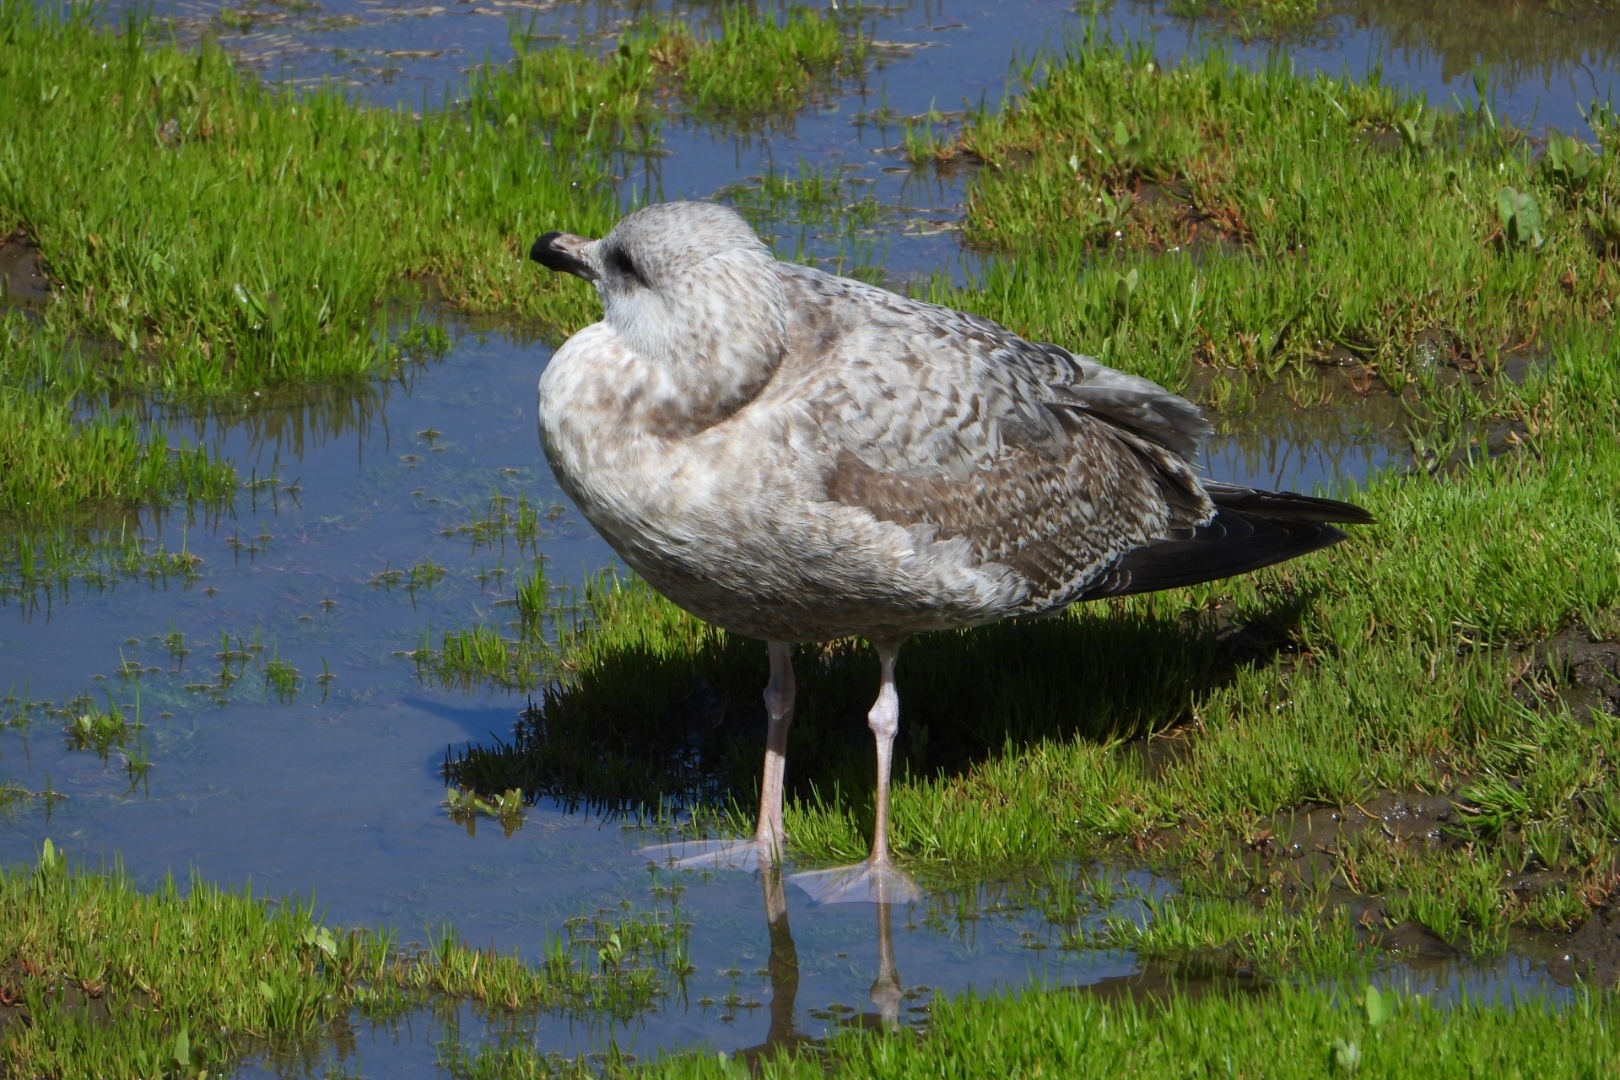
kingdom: Animalia
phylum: Chordata
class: Aves
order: Charadriiformes
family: Laridae
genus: Larus
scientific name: Larus argentatus
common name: Herring gull
